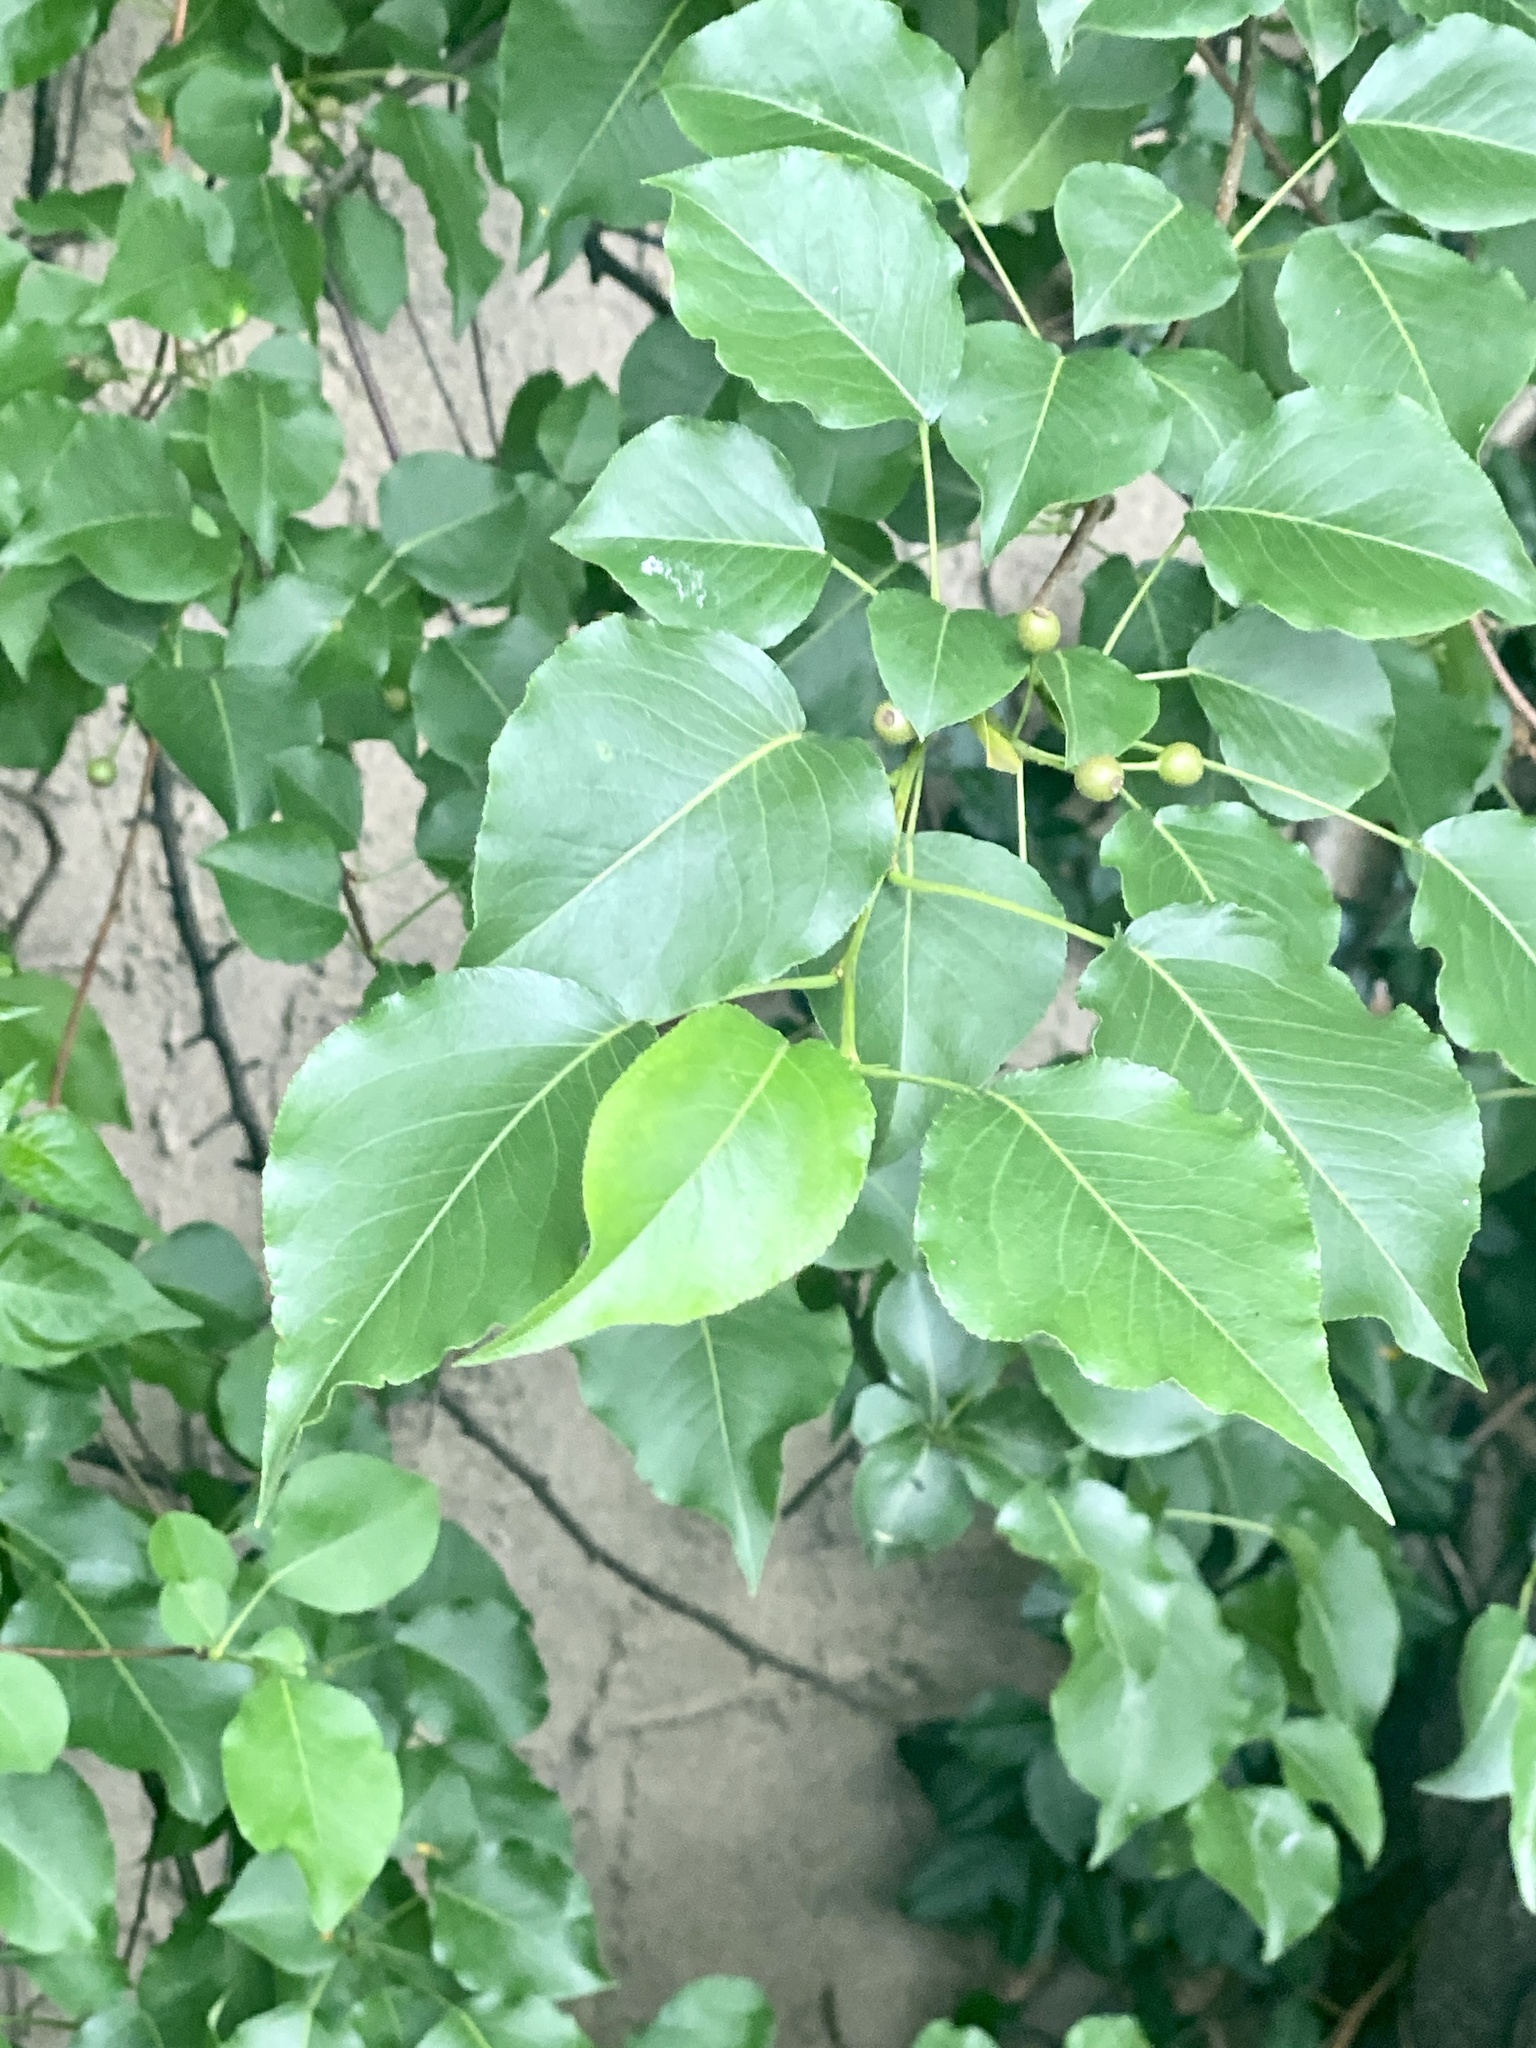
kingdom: Plantae
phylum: Tracheophyta
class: Magnoliopsida
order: Rosales
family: Rosaceae
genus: Pyrus
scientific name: Pyrus calleryana
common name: Callery pear
